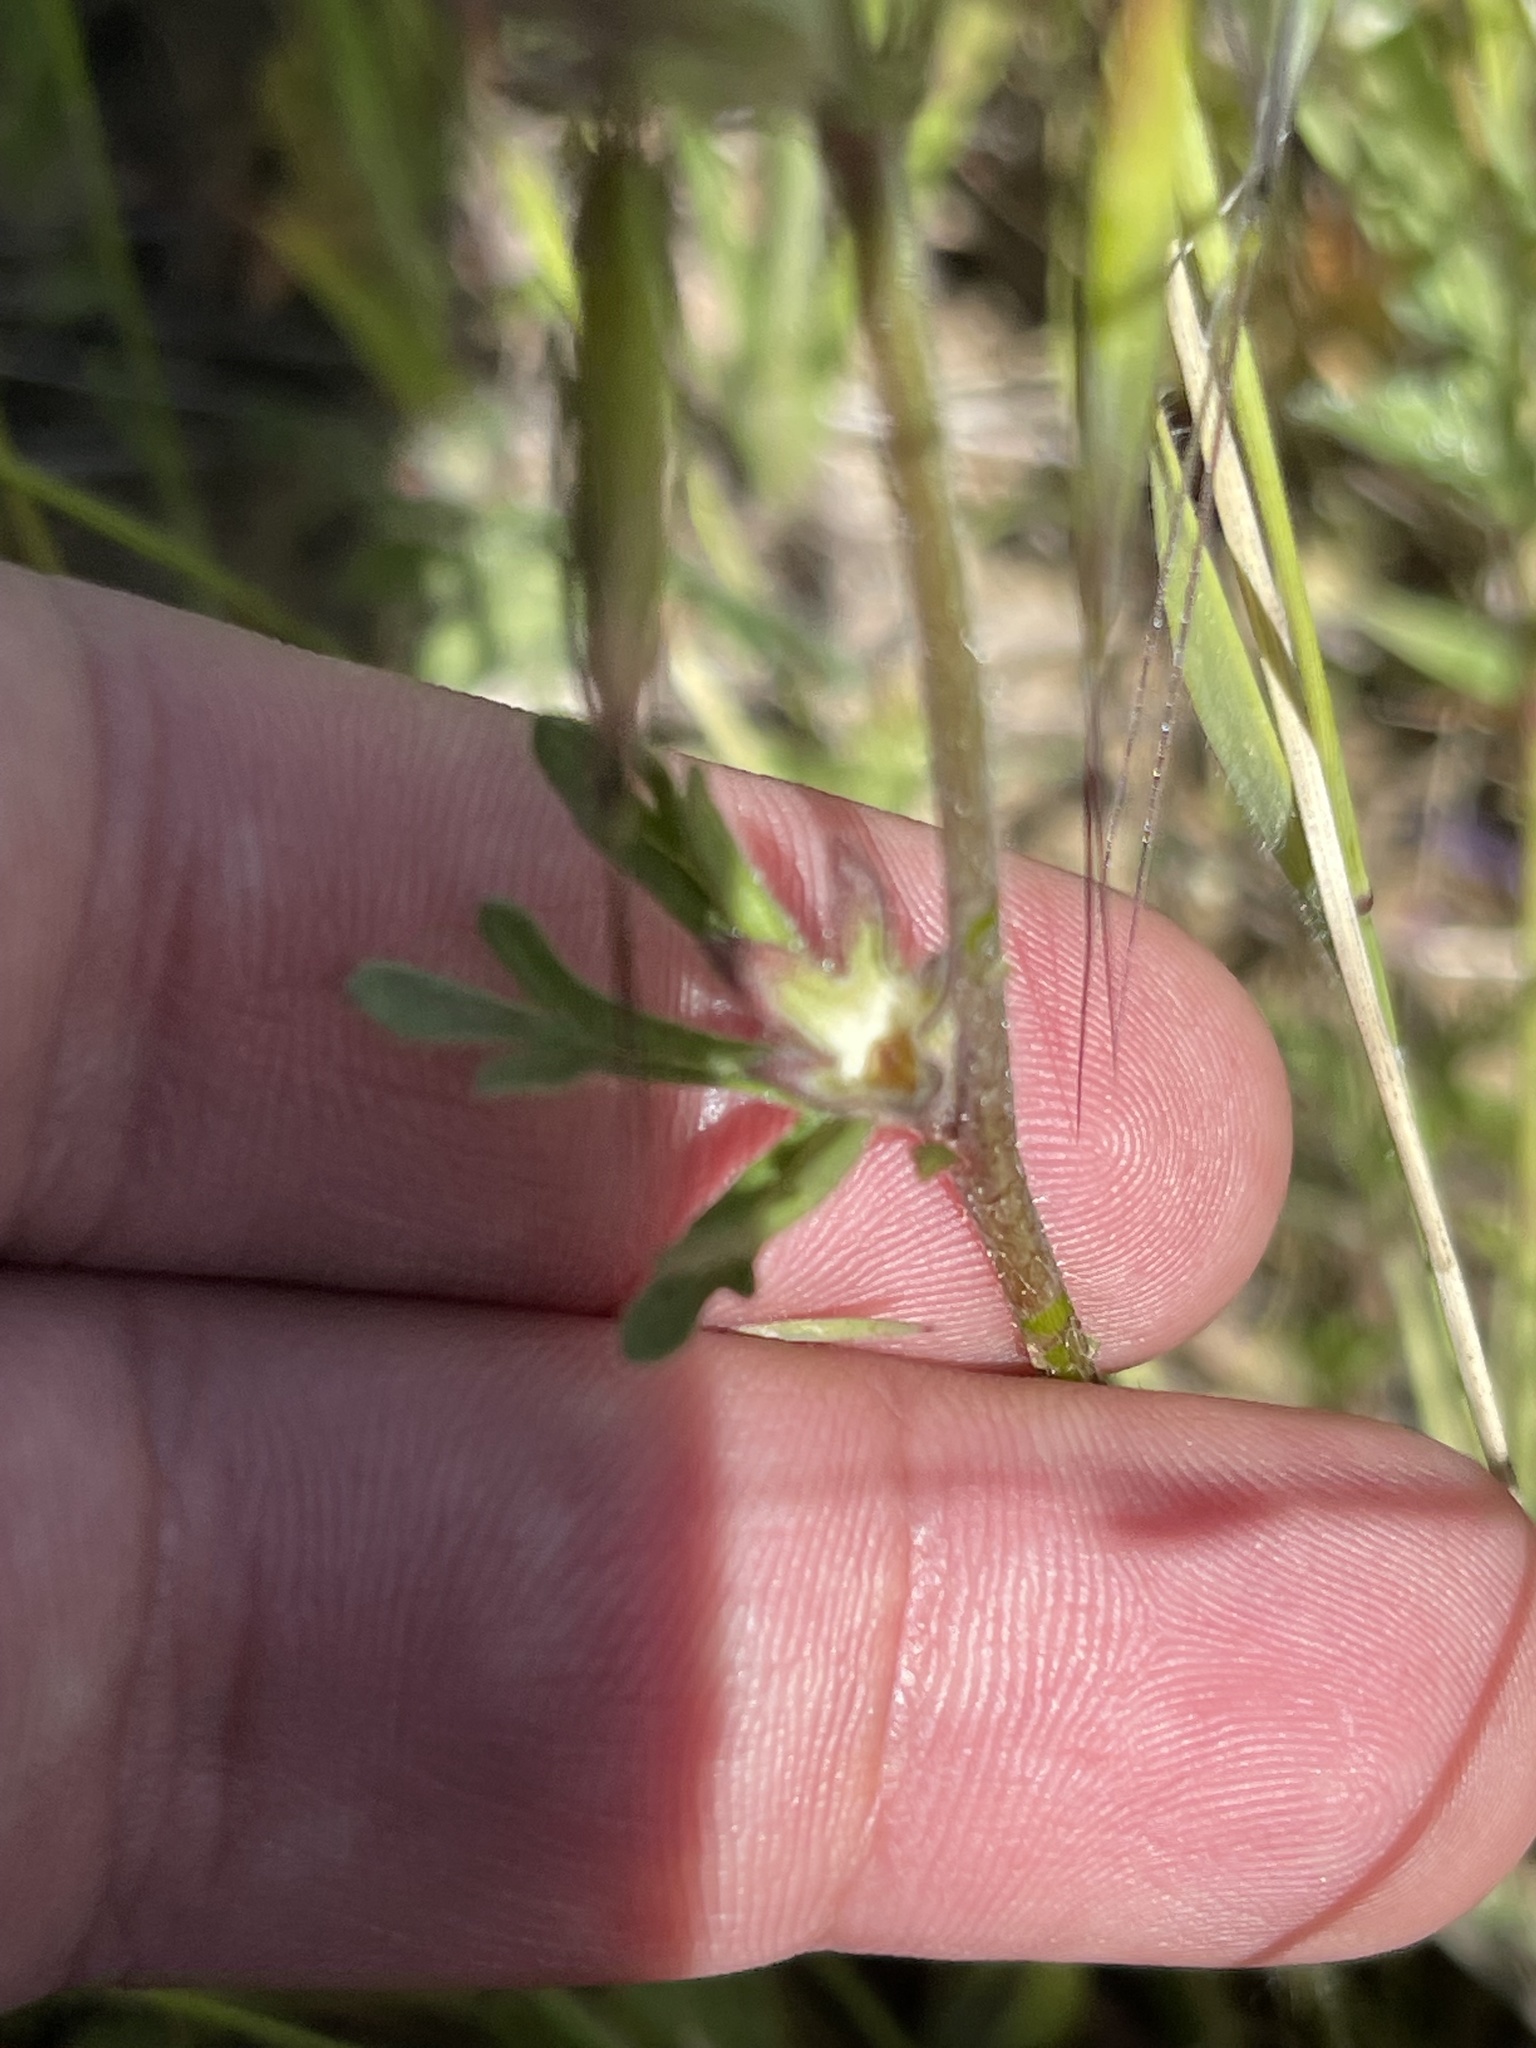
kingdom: Plantae
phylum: Tracheophyta
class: Magnoliopsida
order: Malvales
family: Malvaceae
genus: Sidalcea
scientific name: Sidalcea malviflora
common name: Greek mallow
